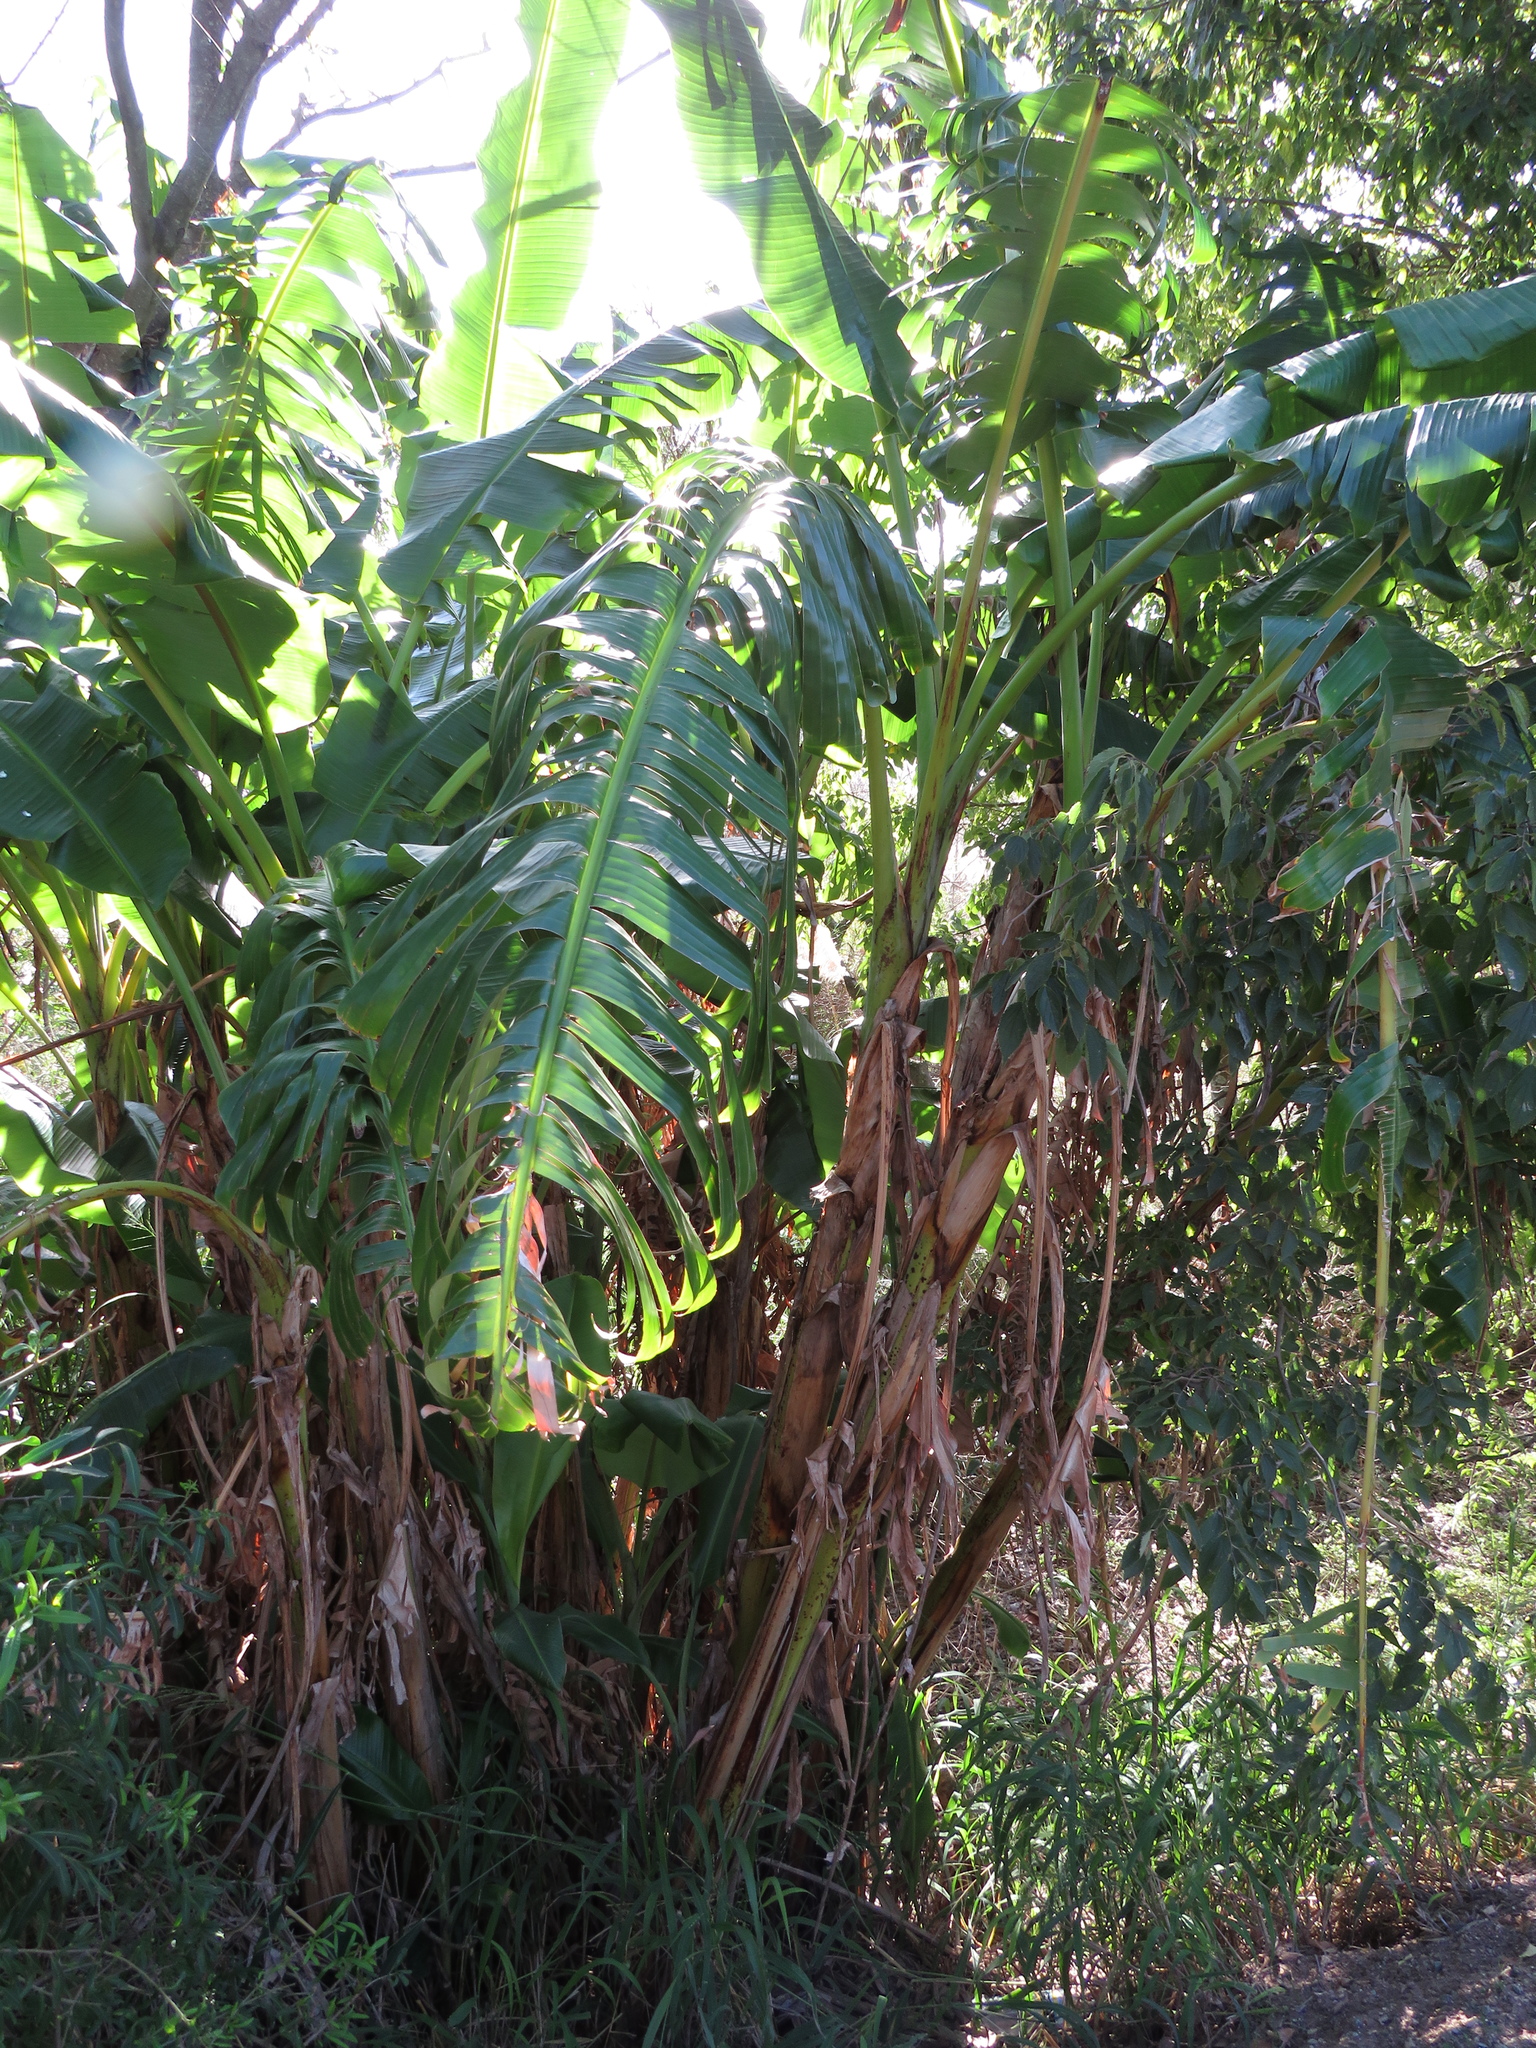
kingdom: Plantae
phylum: Tracheophyta
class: Liliopsida
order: Zingiberales
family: Musaceae
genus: Musa
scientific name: Musa paradisiaca
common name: French plantain
